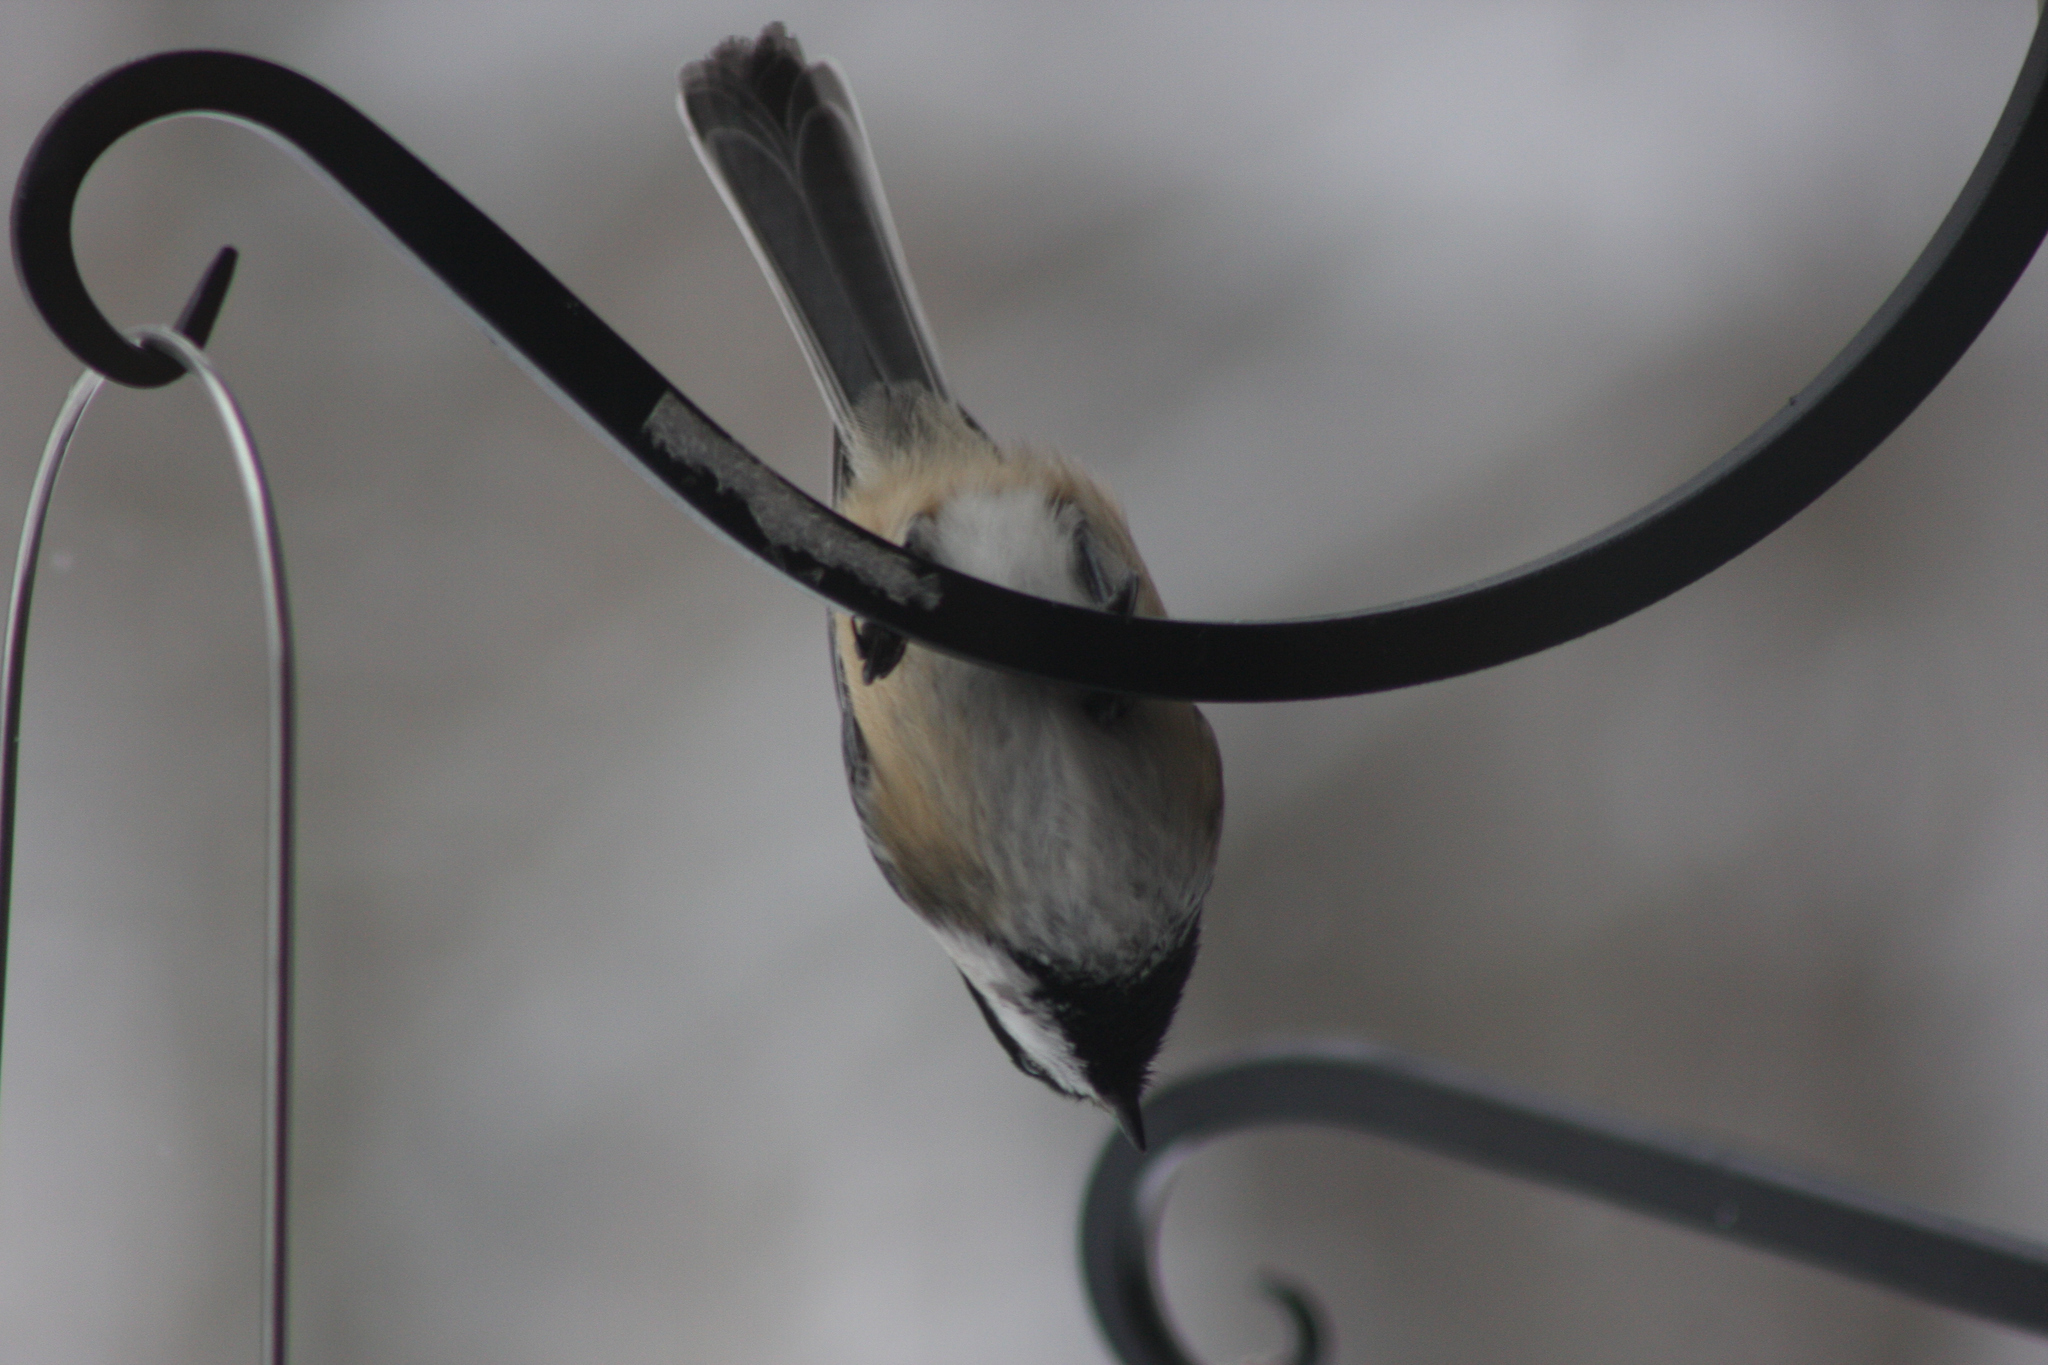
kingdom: Animalia
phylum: Chordata
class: Aves
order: Passeriformes
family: Paridae
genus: Poecile
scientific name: Poecile atricapillus
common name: Black-capped chickadee
